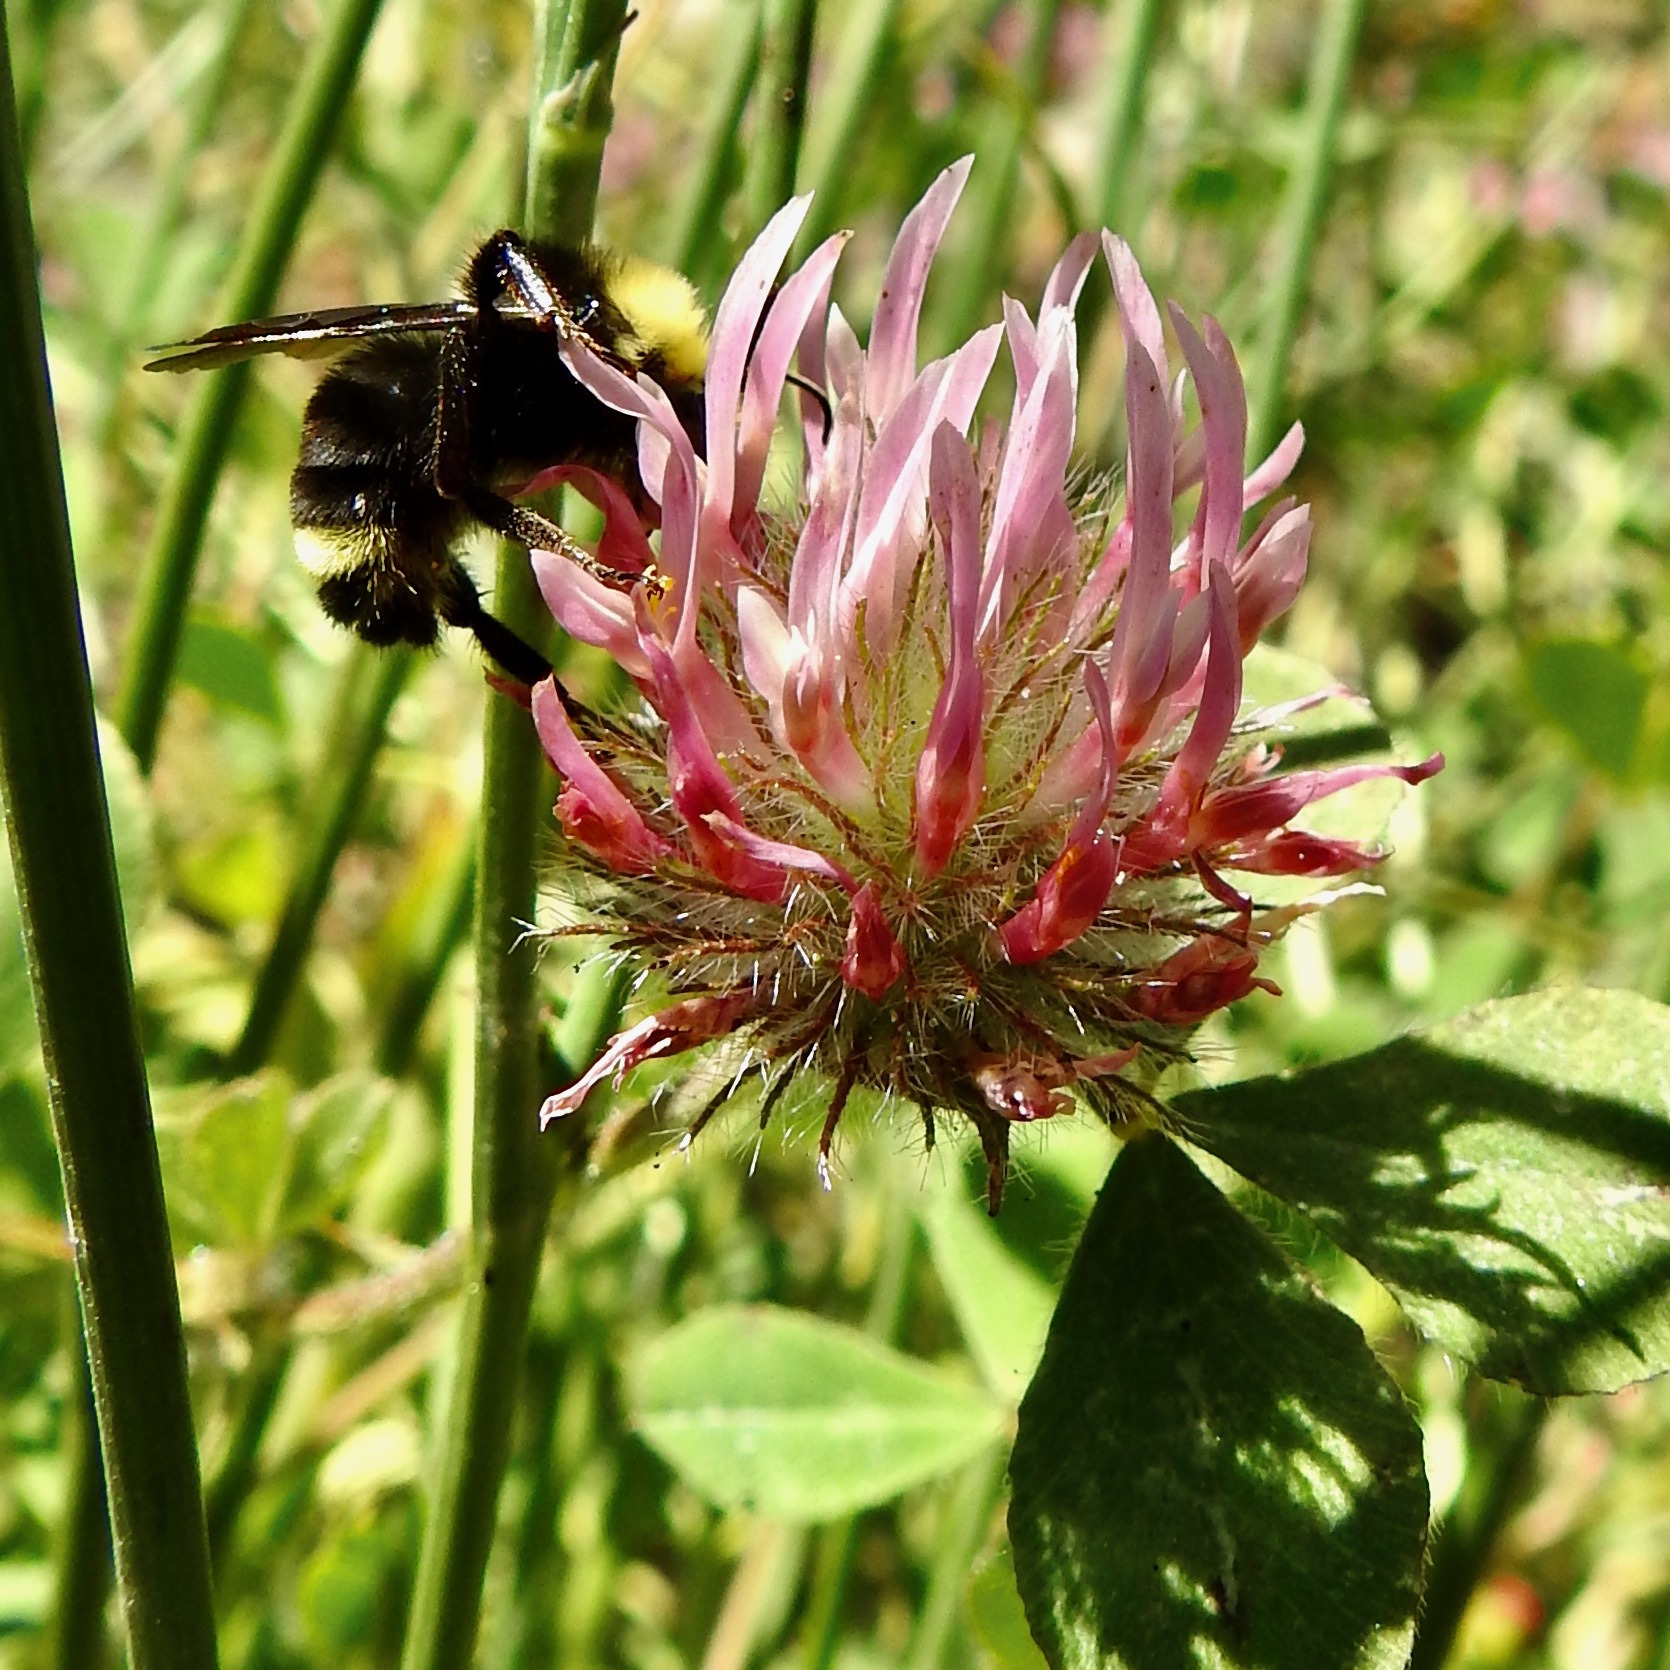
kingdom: Plantae
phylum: Tracheophyta
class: Magnoliopsida
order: Fabales
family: Fabaceae
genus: Trifolium
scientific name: Trifolium hirtum
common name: Rose clover
